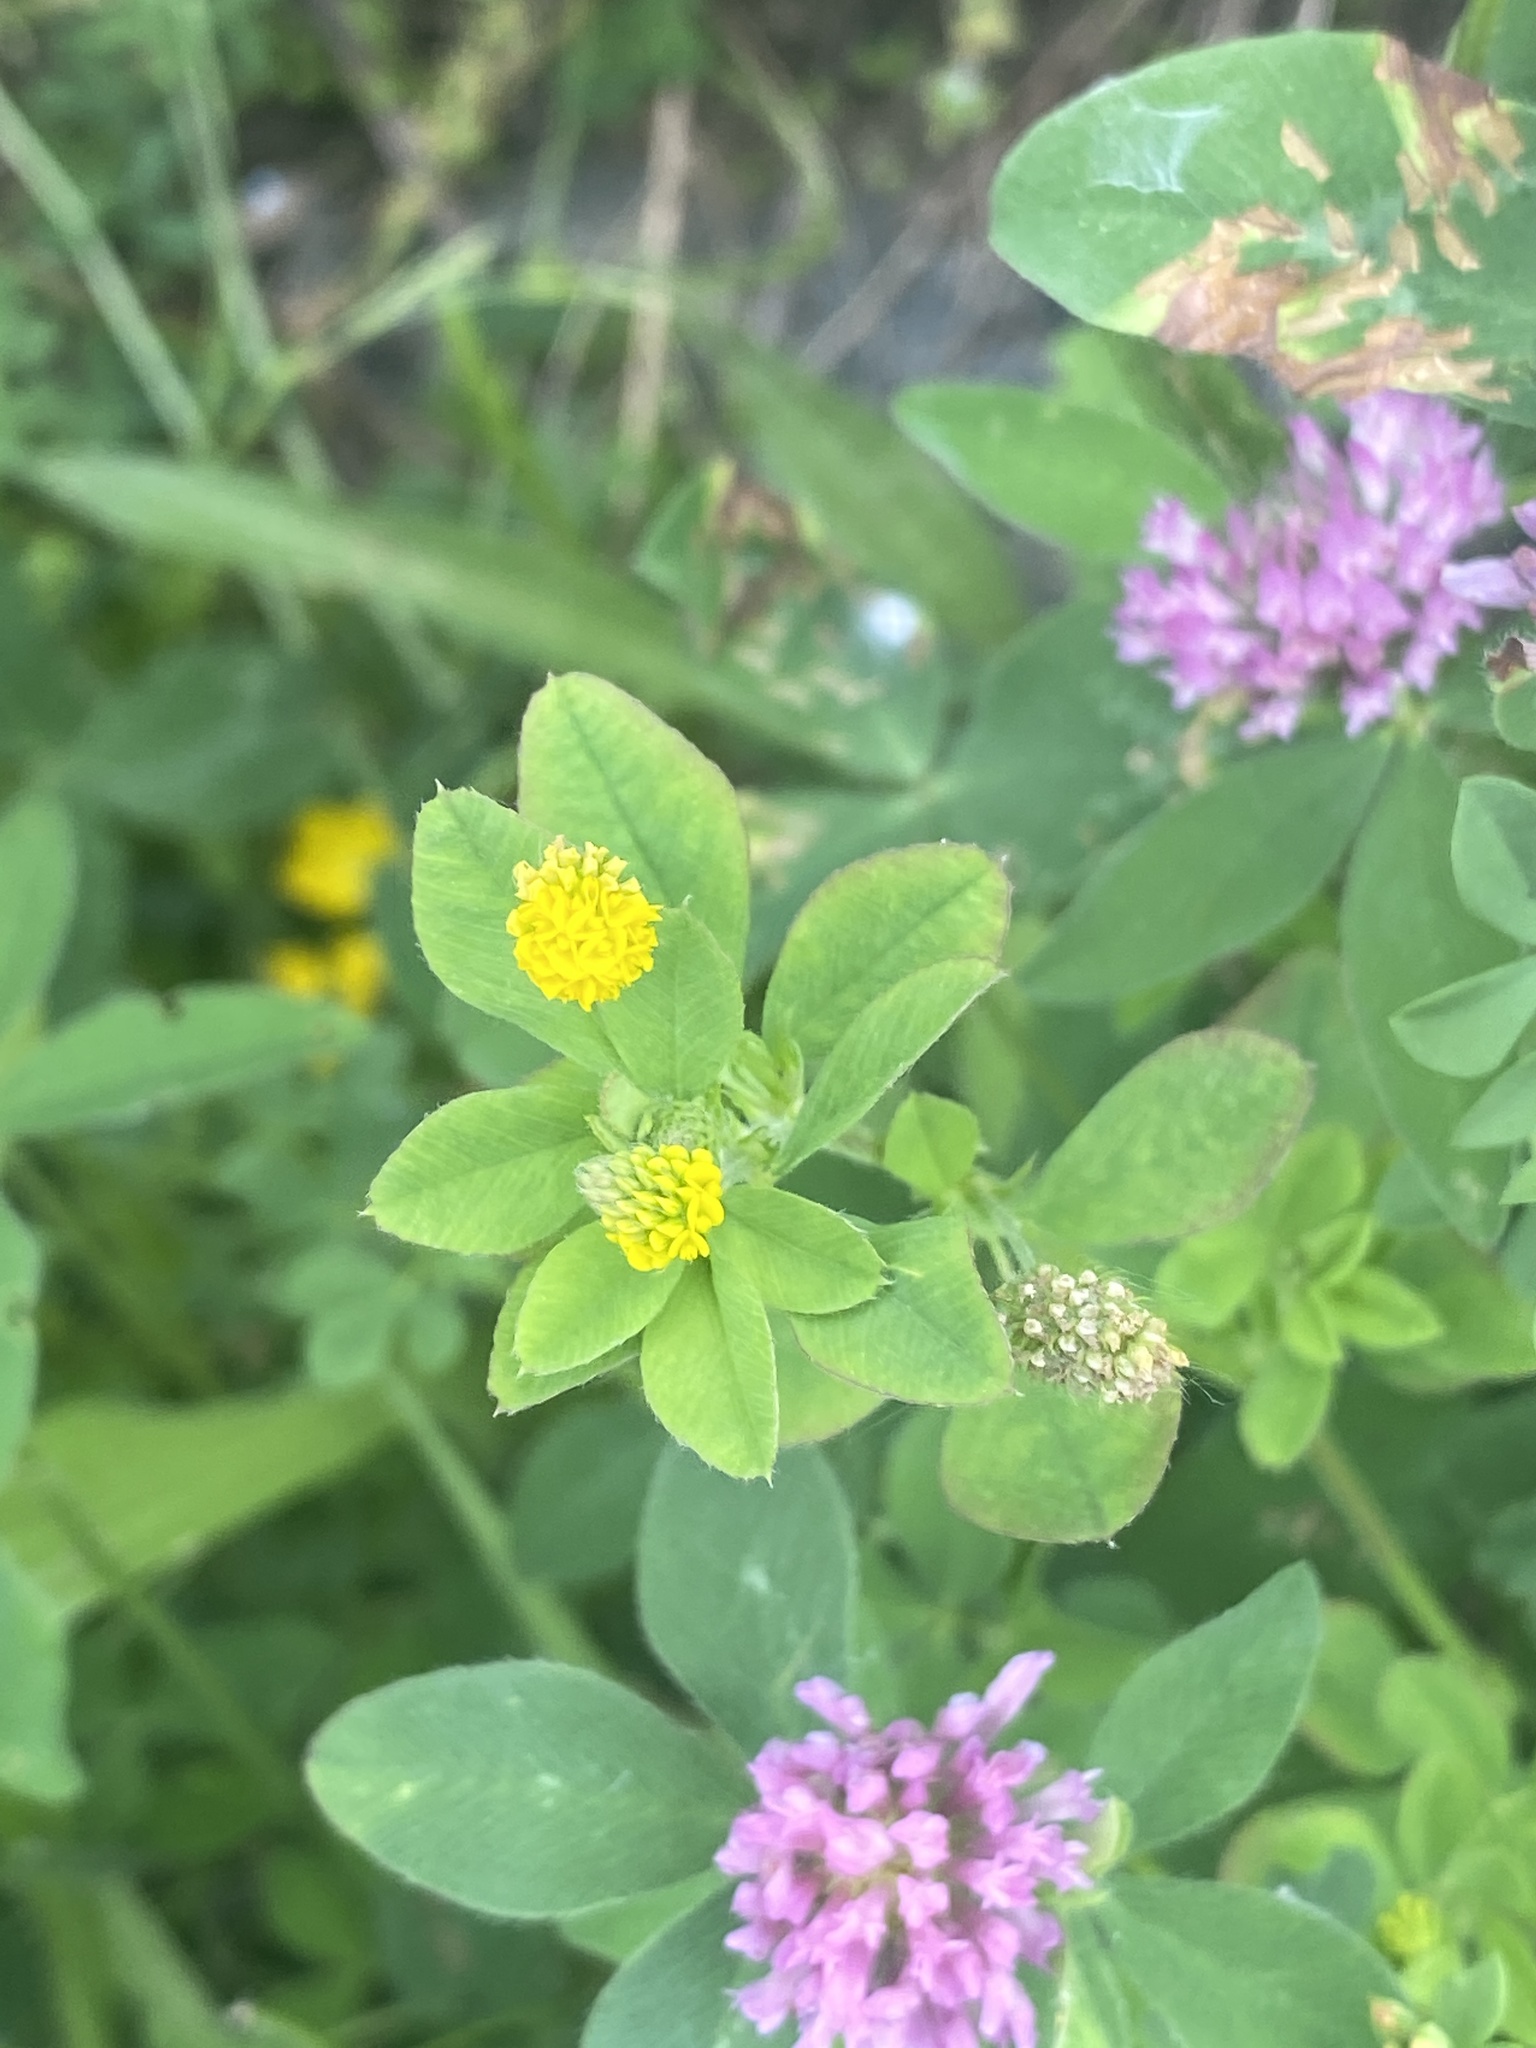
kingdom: Plantae
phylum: Tracheophyta
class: Magnoliopsida
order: Fabales
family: Fabaceae
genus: Medicago
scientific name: Medicago lupulina
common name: Black medick
